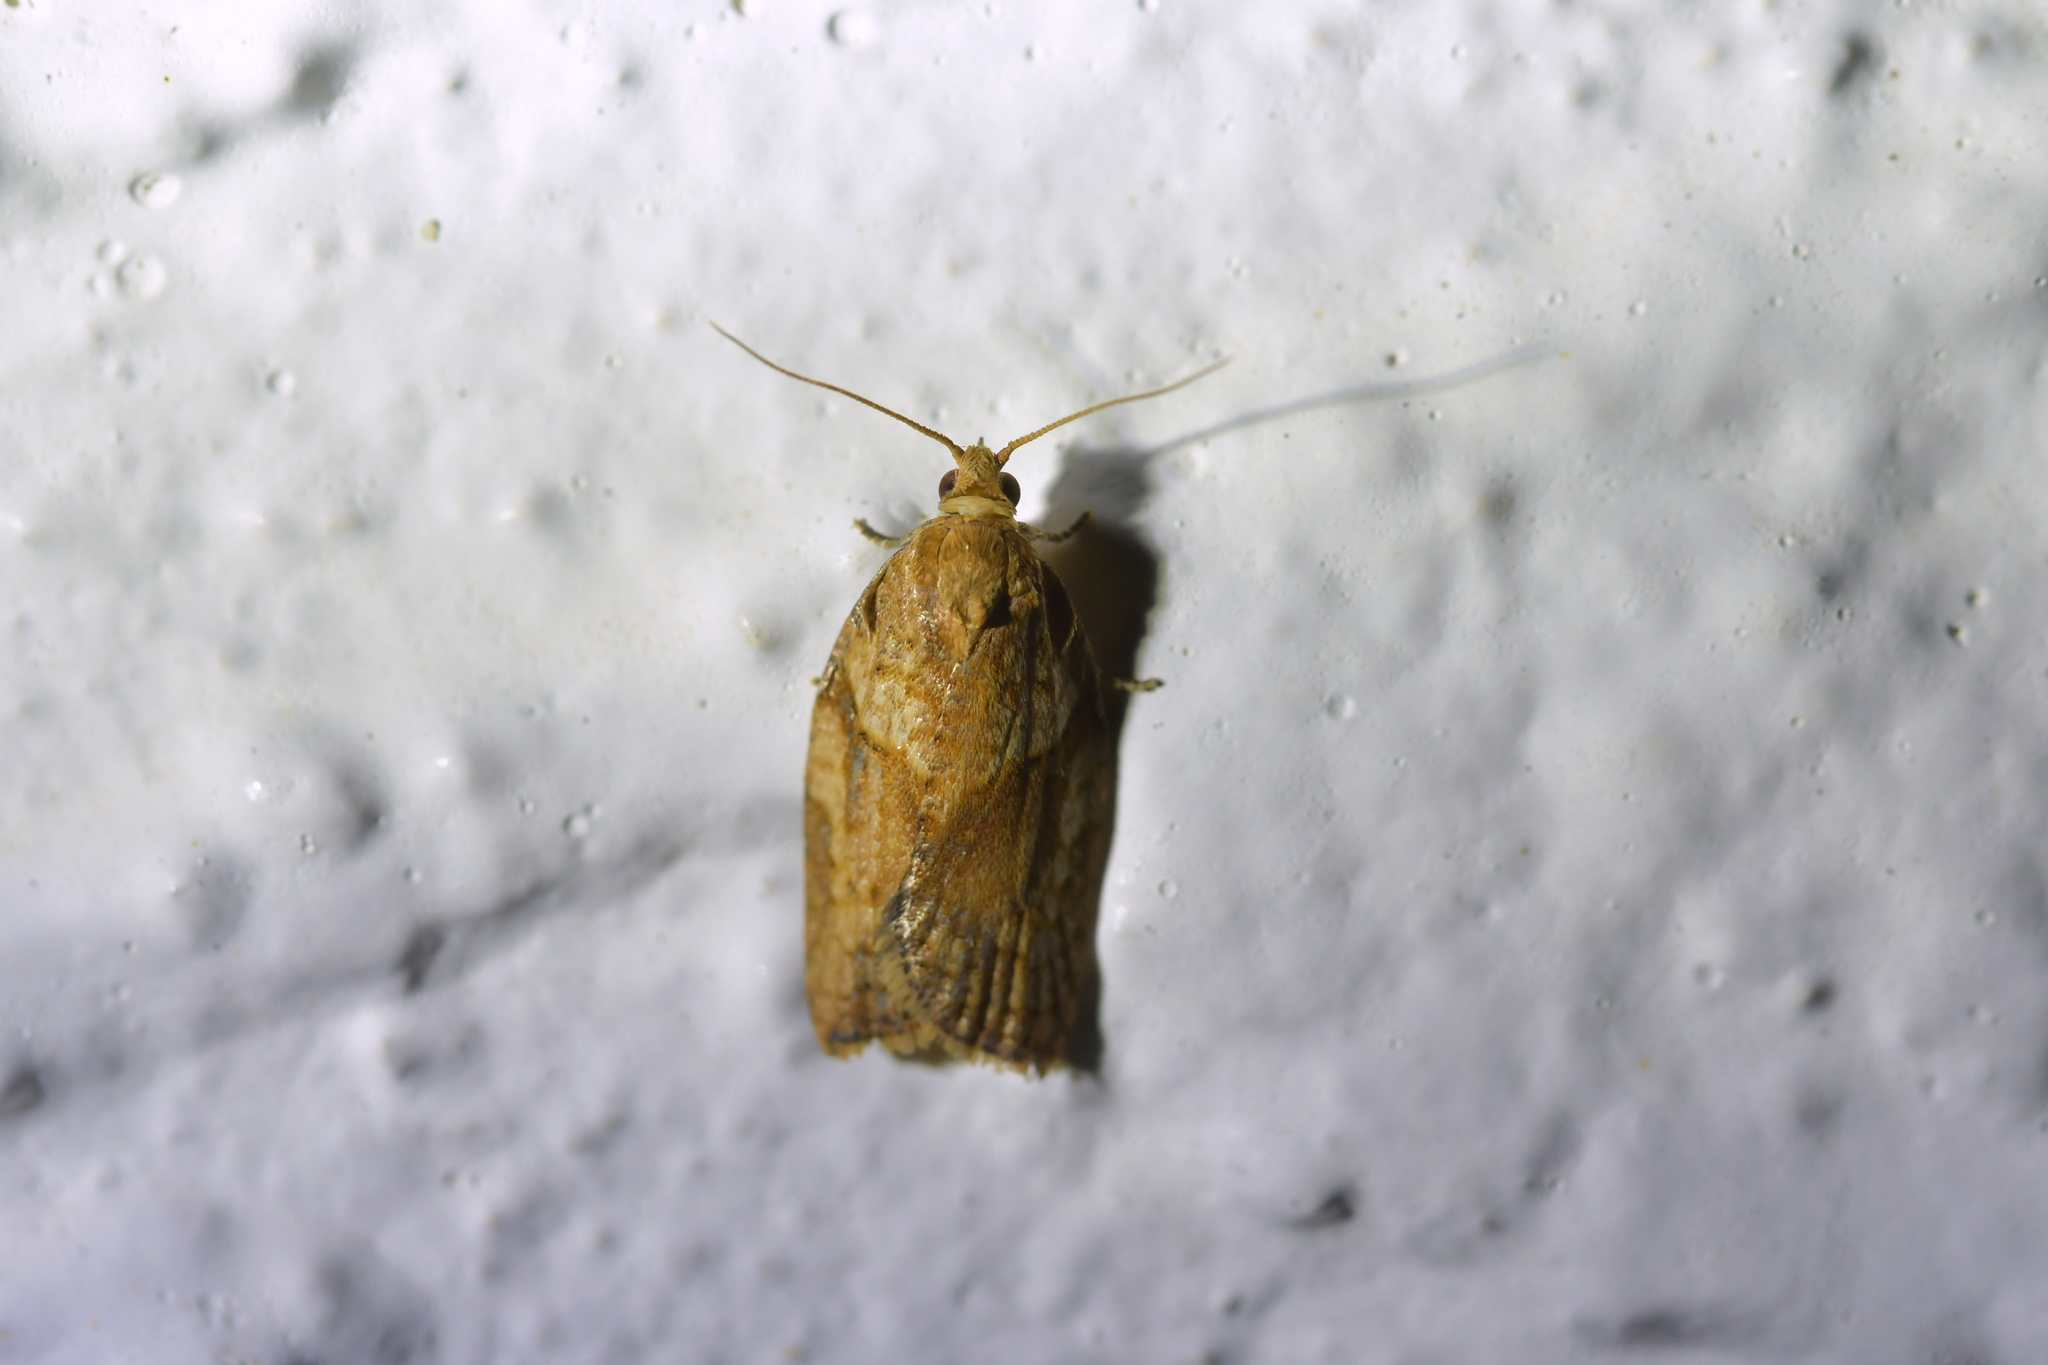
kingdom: Animalia
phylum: Arthropoda
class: Insecta
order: Lepidoptera
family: Tortricidae
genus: Epiphyas
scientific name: Epiphyas postvittana
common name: Light brown apple moth
